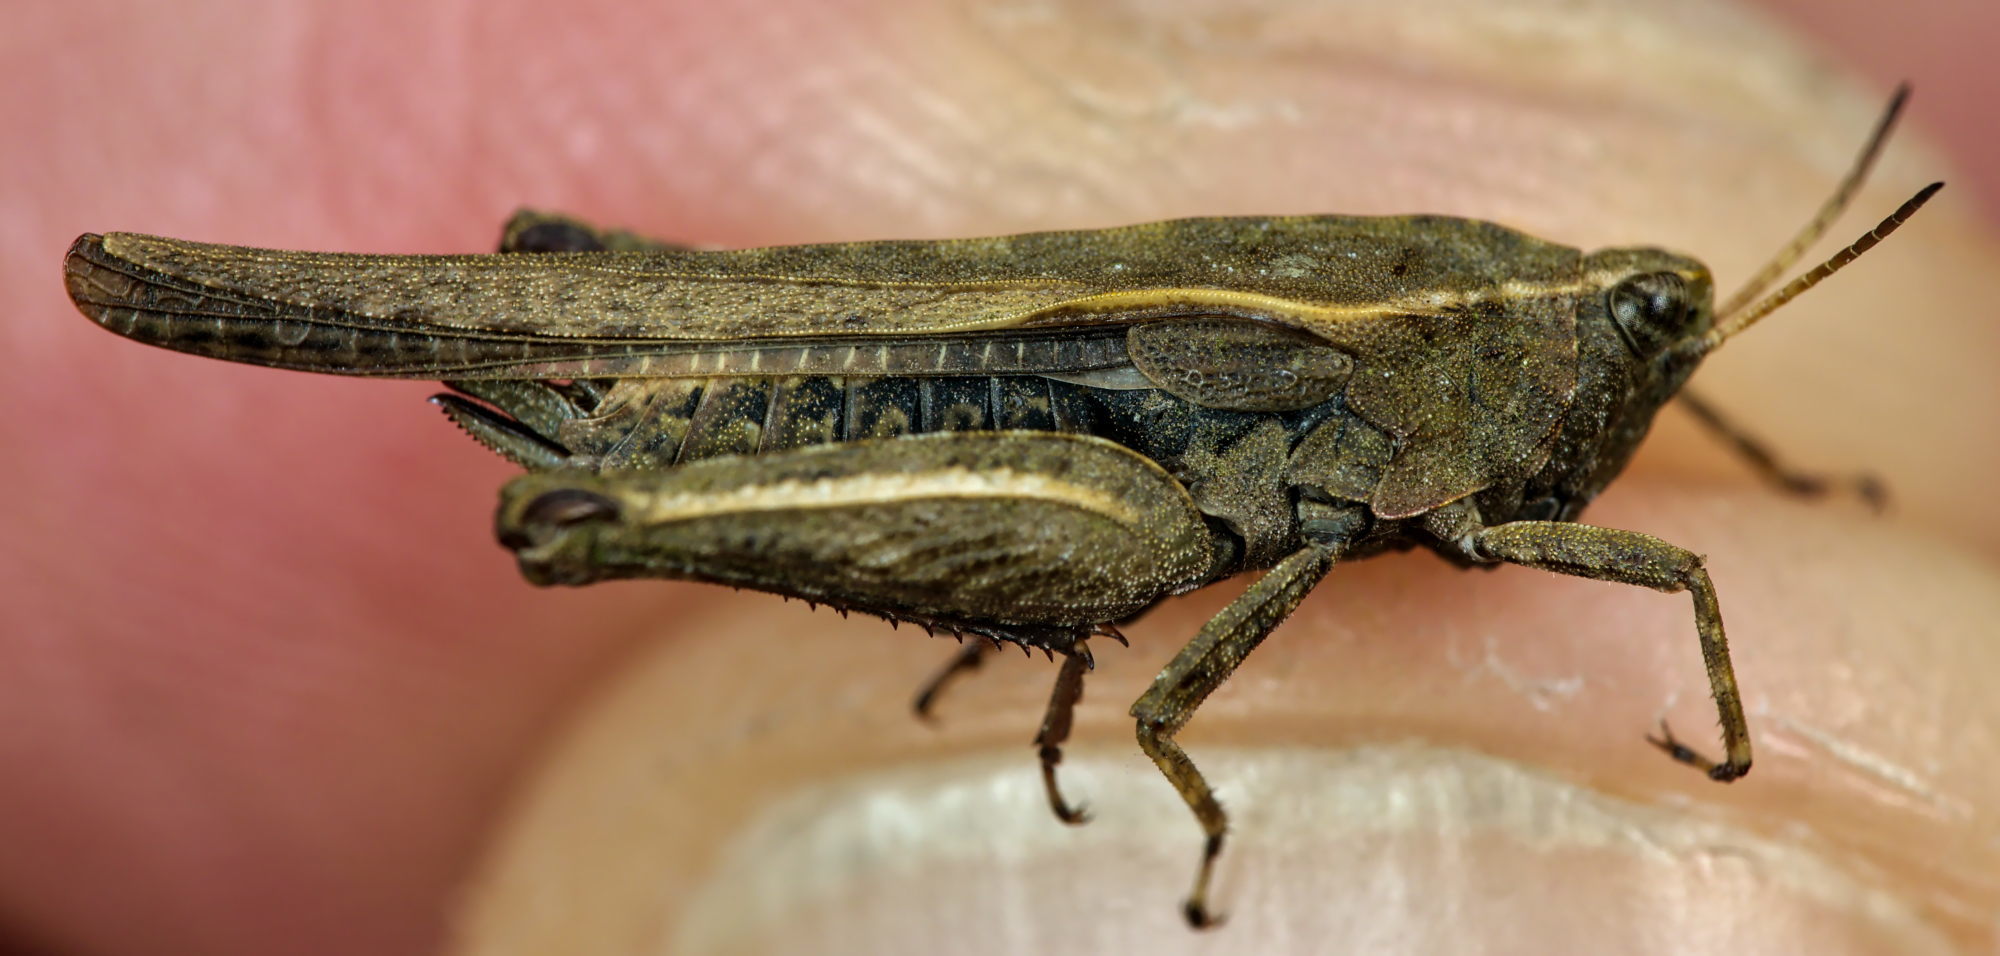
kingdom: Animalia
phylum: Arthropoda
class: Insecta
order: Orthoptera
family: Tetrigidae
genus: Tetrix
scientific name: Tetrix subulata
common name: Slender ground-hopper
